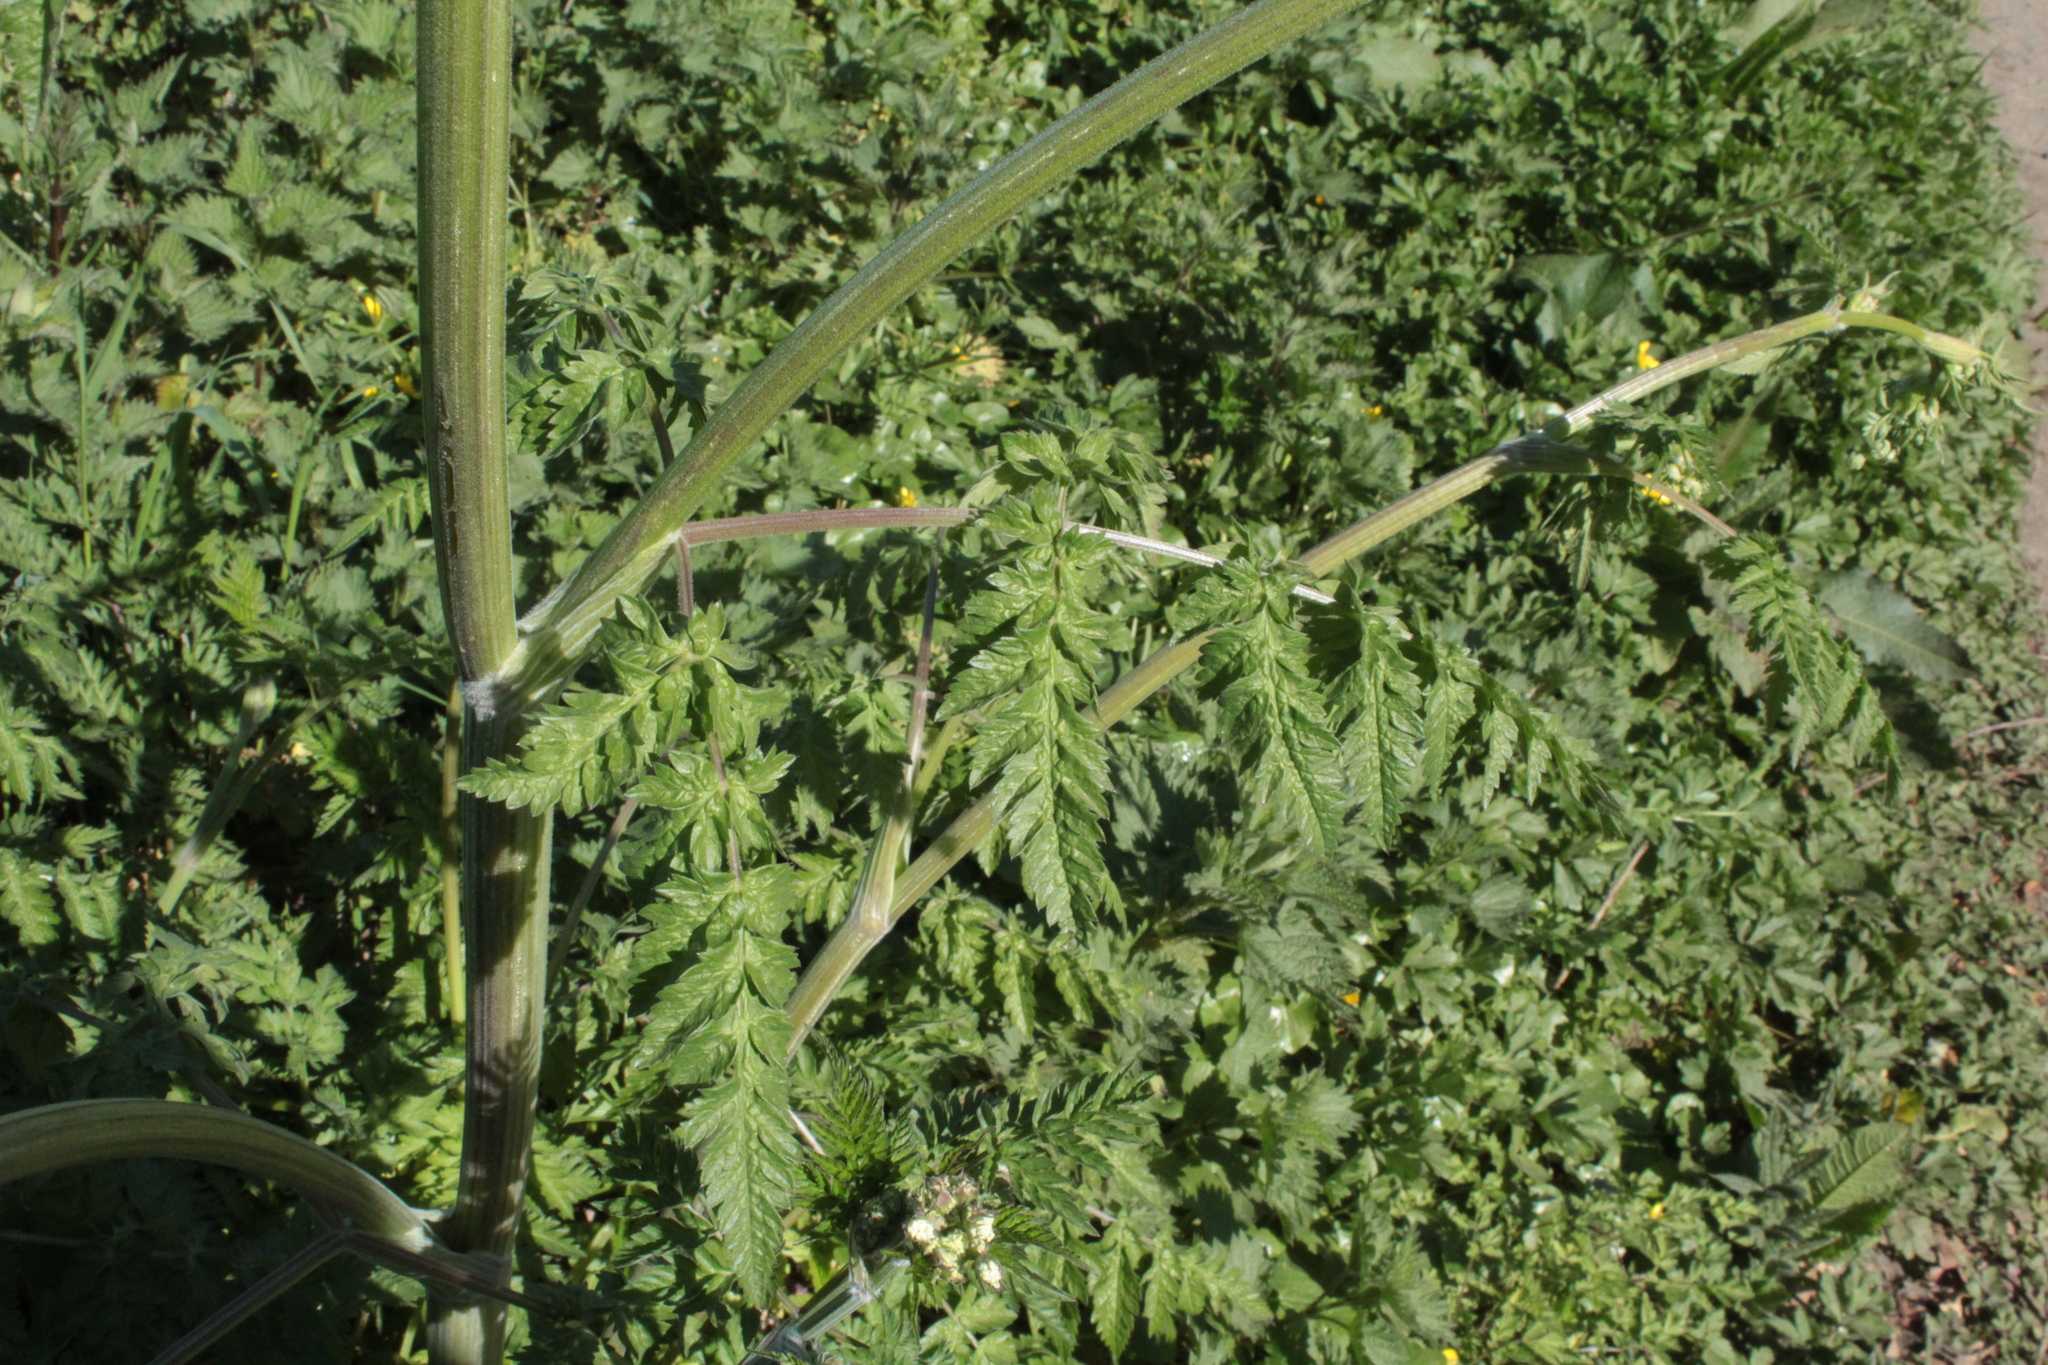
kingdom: Plantae
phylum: Tracheophyta
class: Magnoliopsida
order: Apiales
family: Apiaceae
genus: Anthriscus
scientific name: Anthriscus sylvestris
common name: Cow parsley
